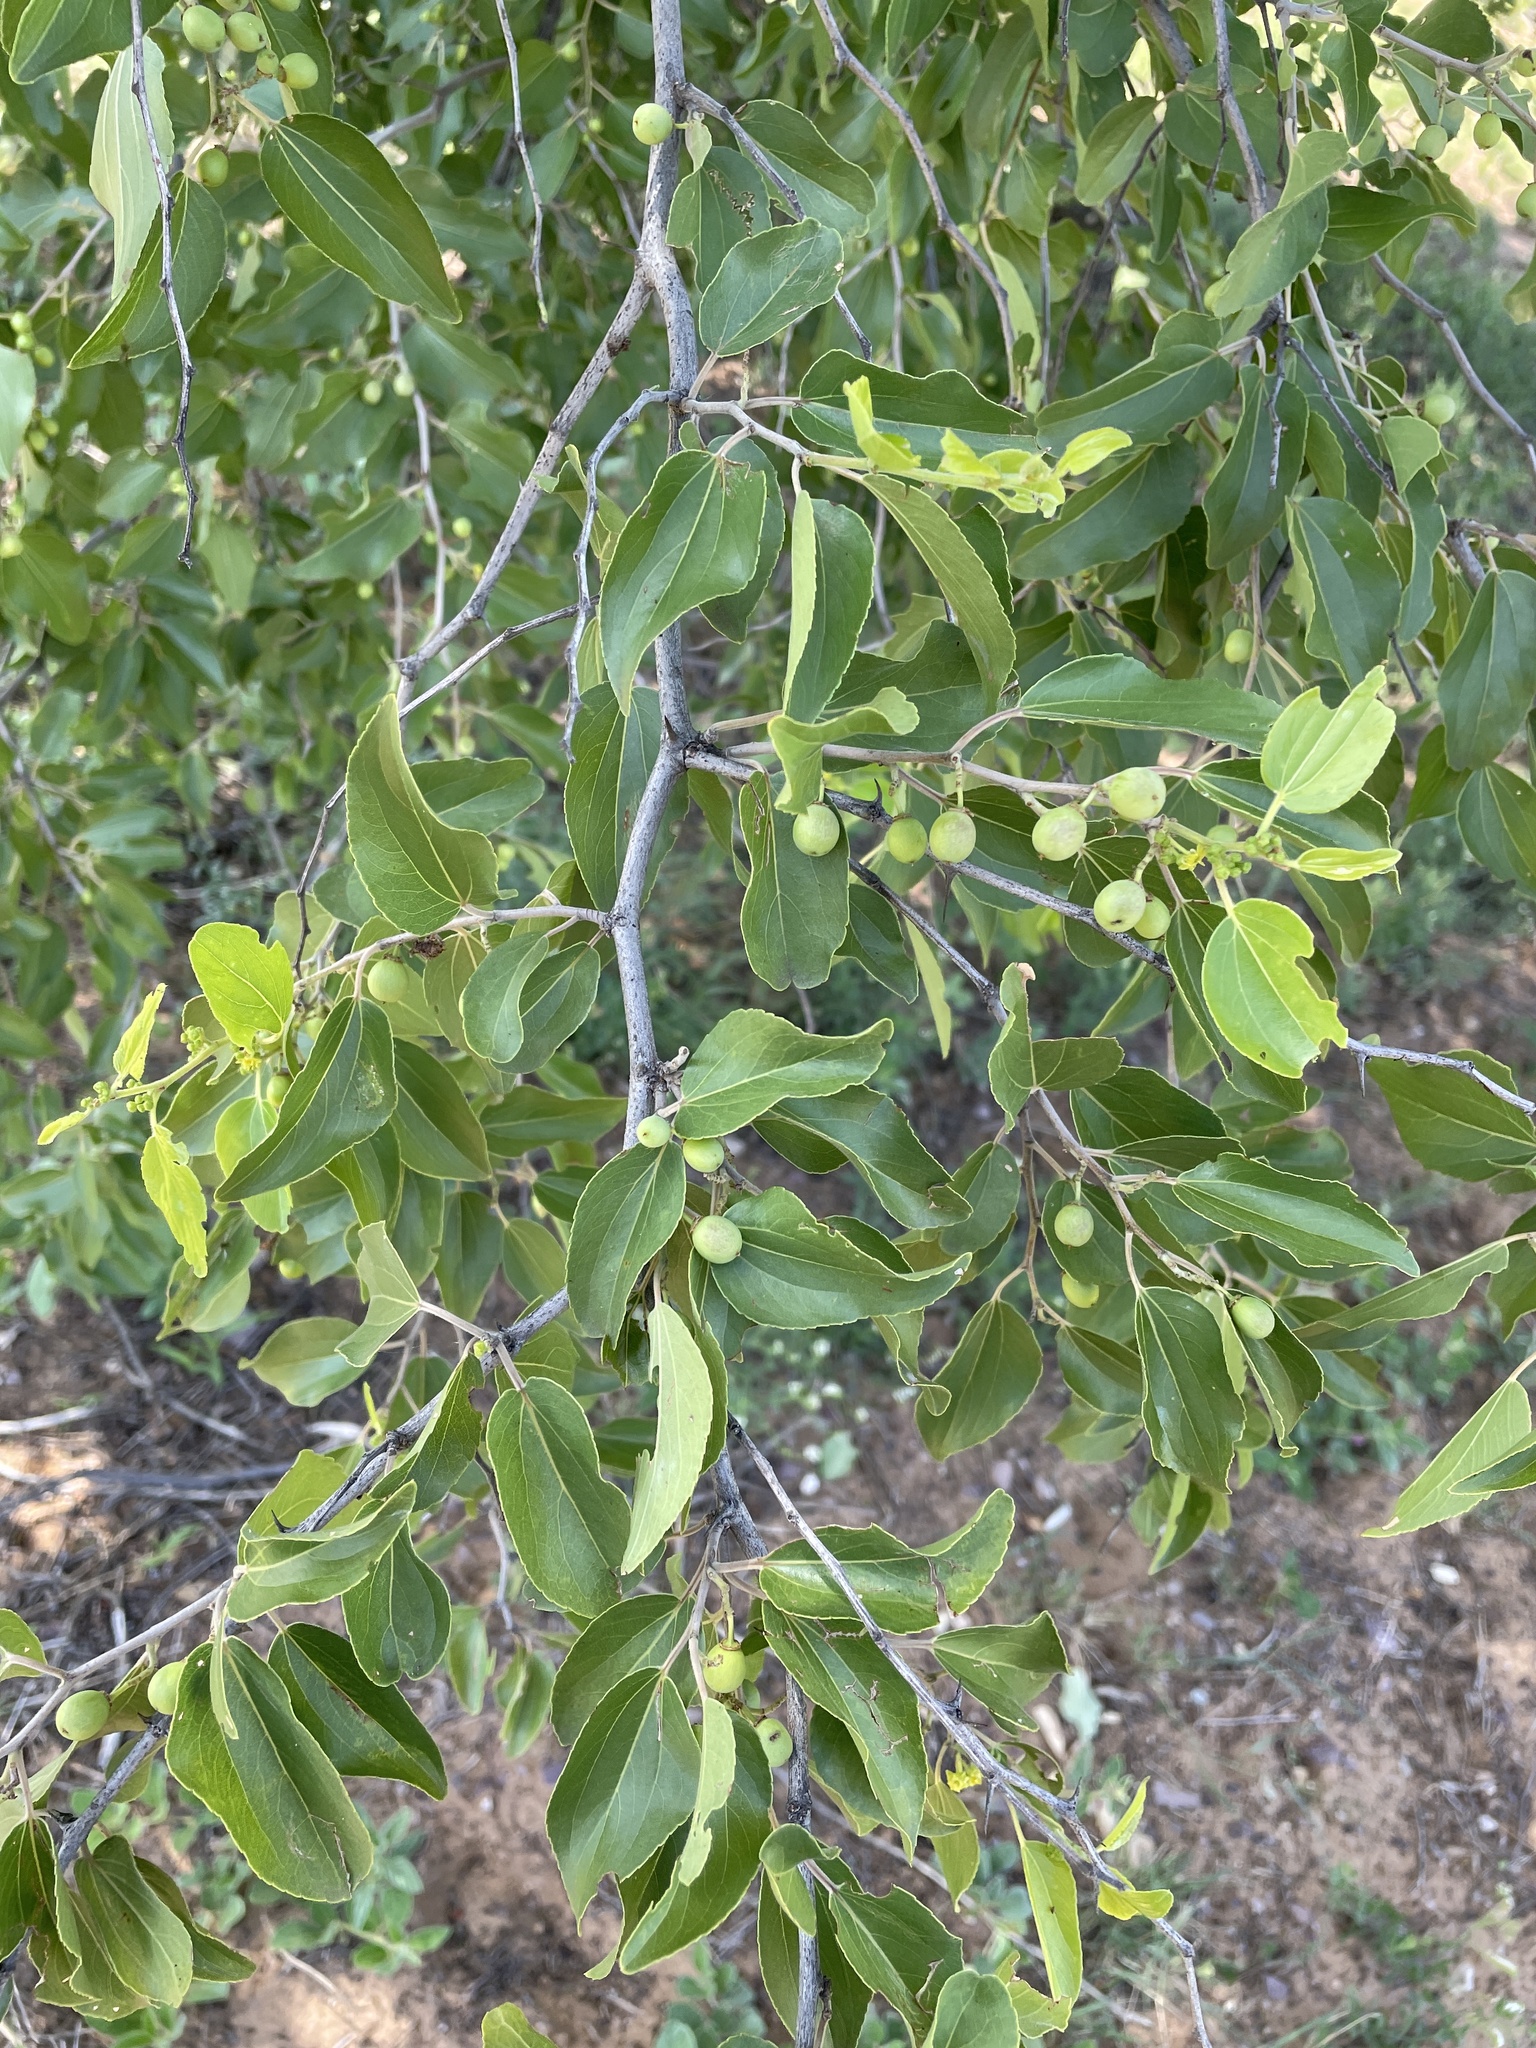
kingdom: Plantae
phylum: Tracheophyta
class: Magnoliopsida
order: Rosales
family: Rhamnaceae
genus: Ziziphus
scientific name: Ziziphus mucronata
